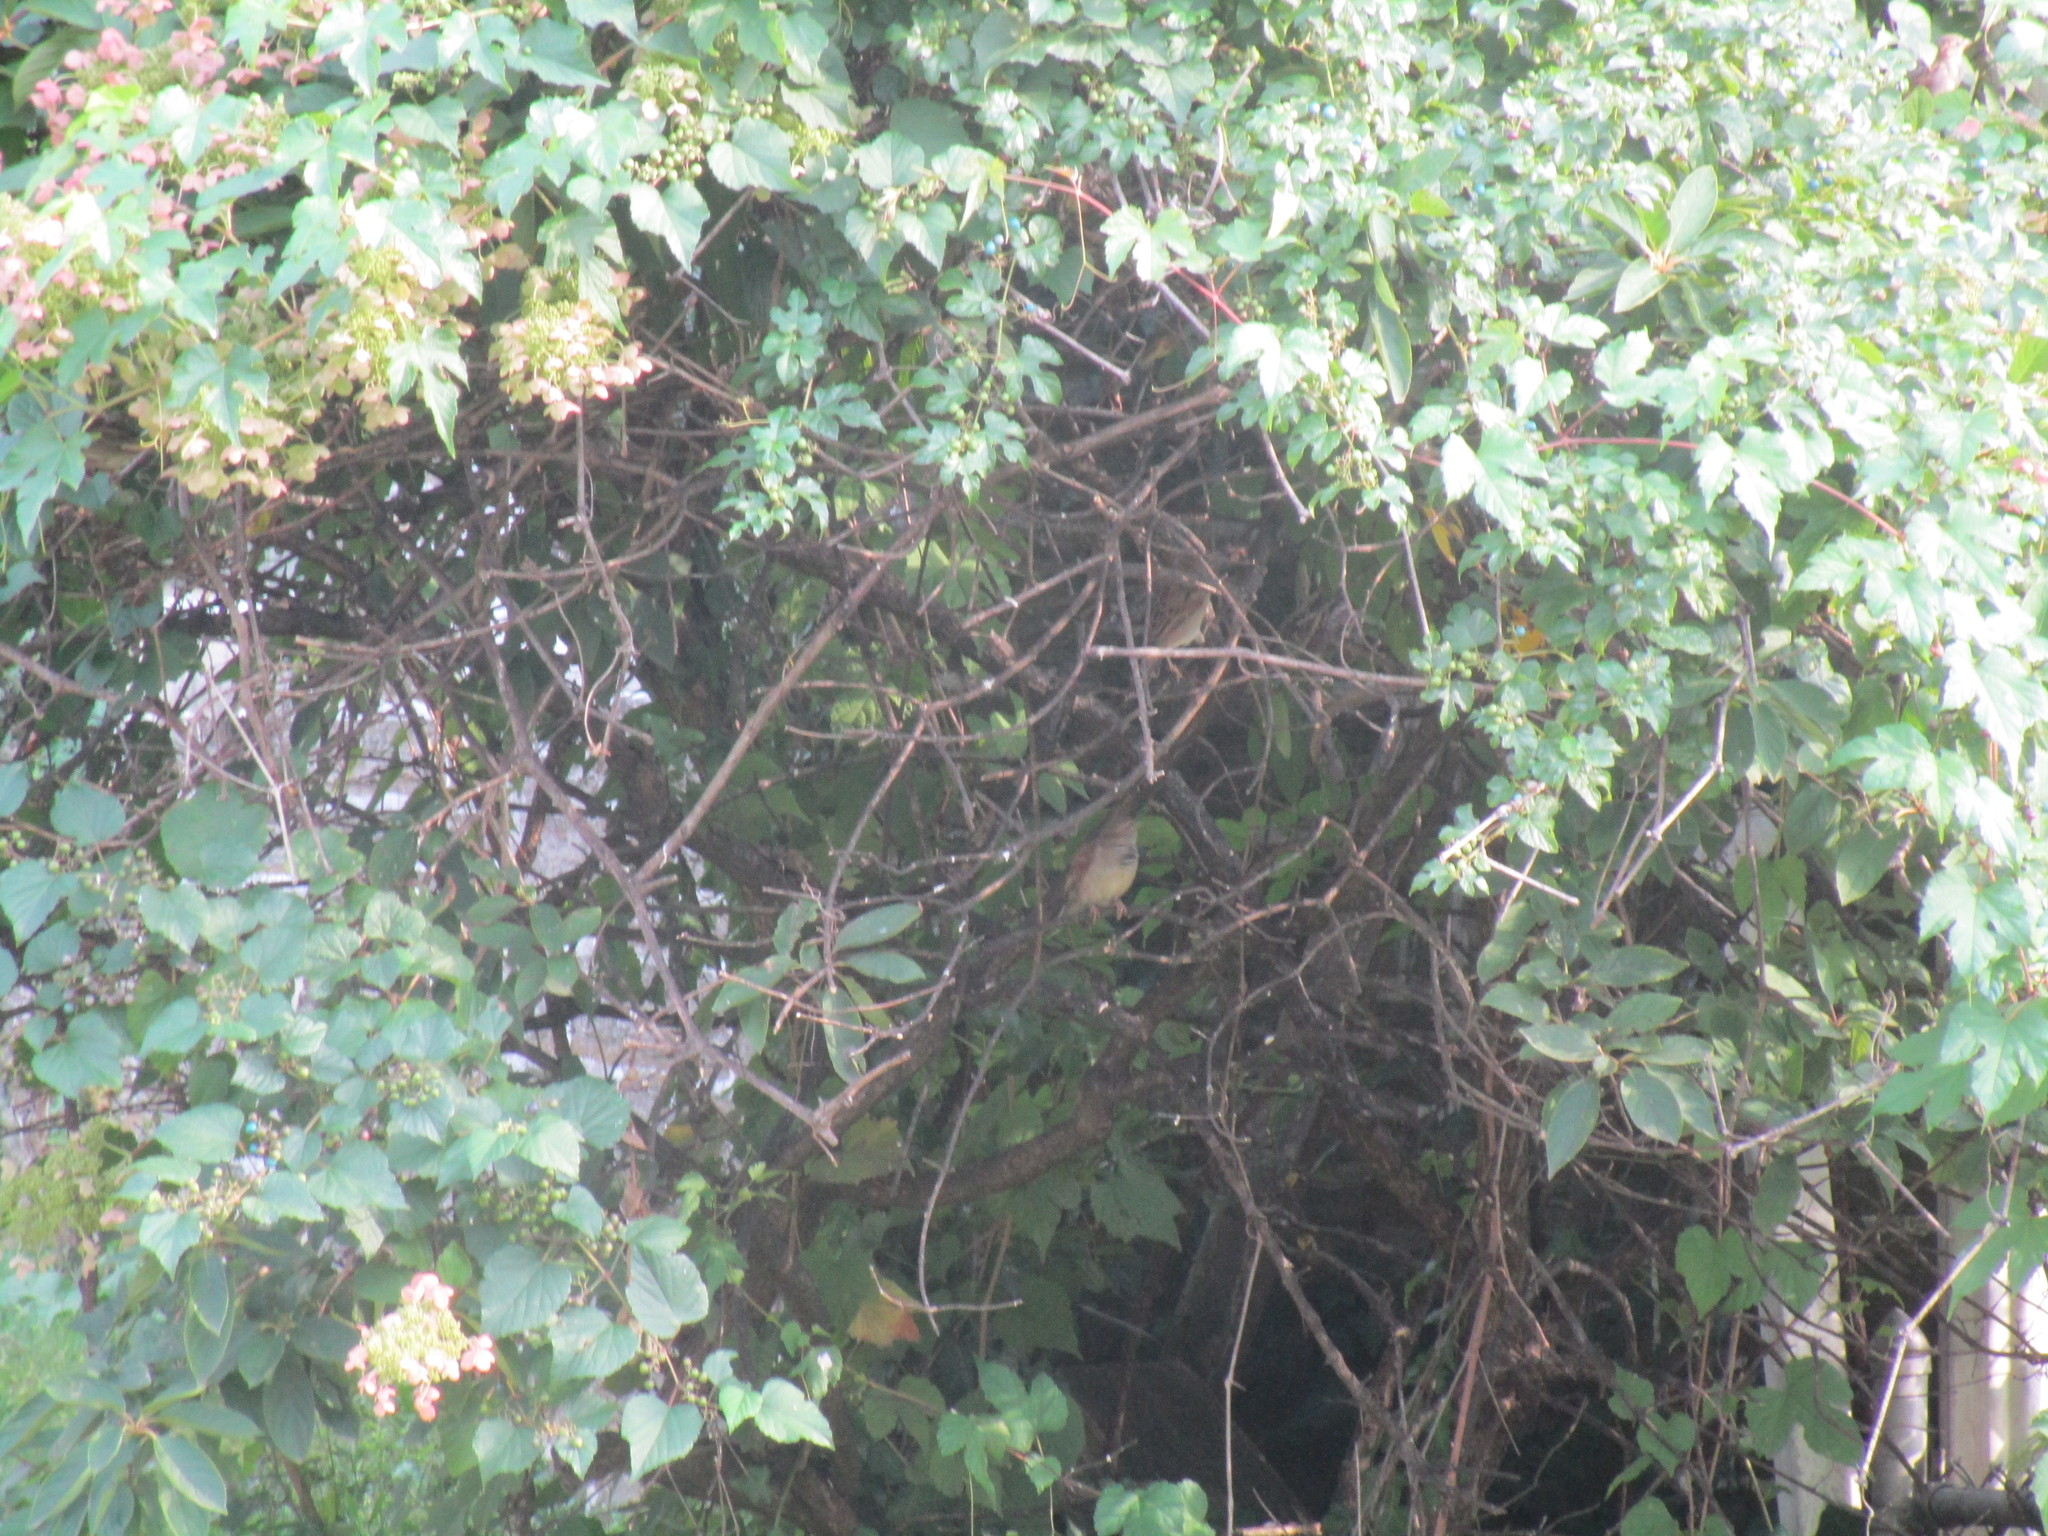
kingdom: Animalia
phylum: Chordata
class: Aves
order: Passeriformes
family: Passeridae
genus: Passer
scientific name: Passer domesticus
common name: House sparrow
